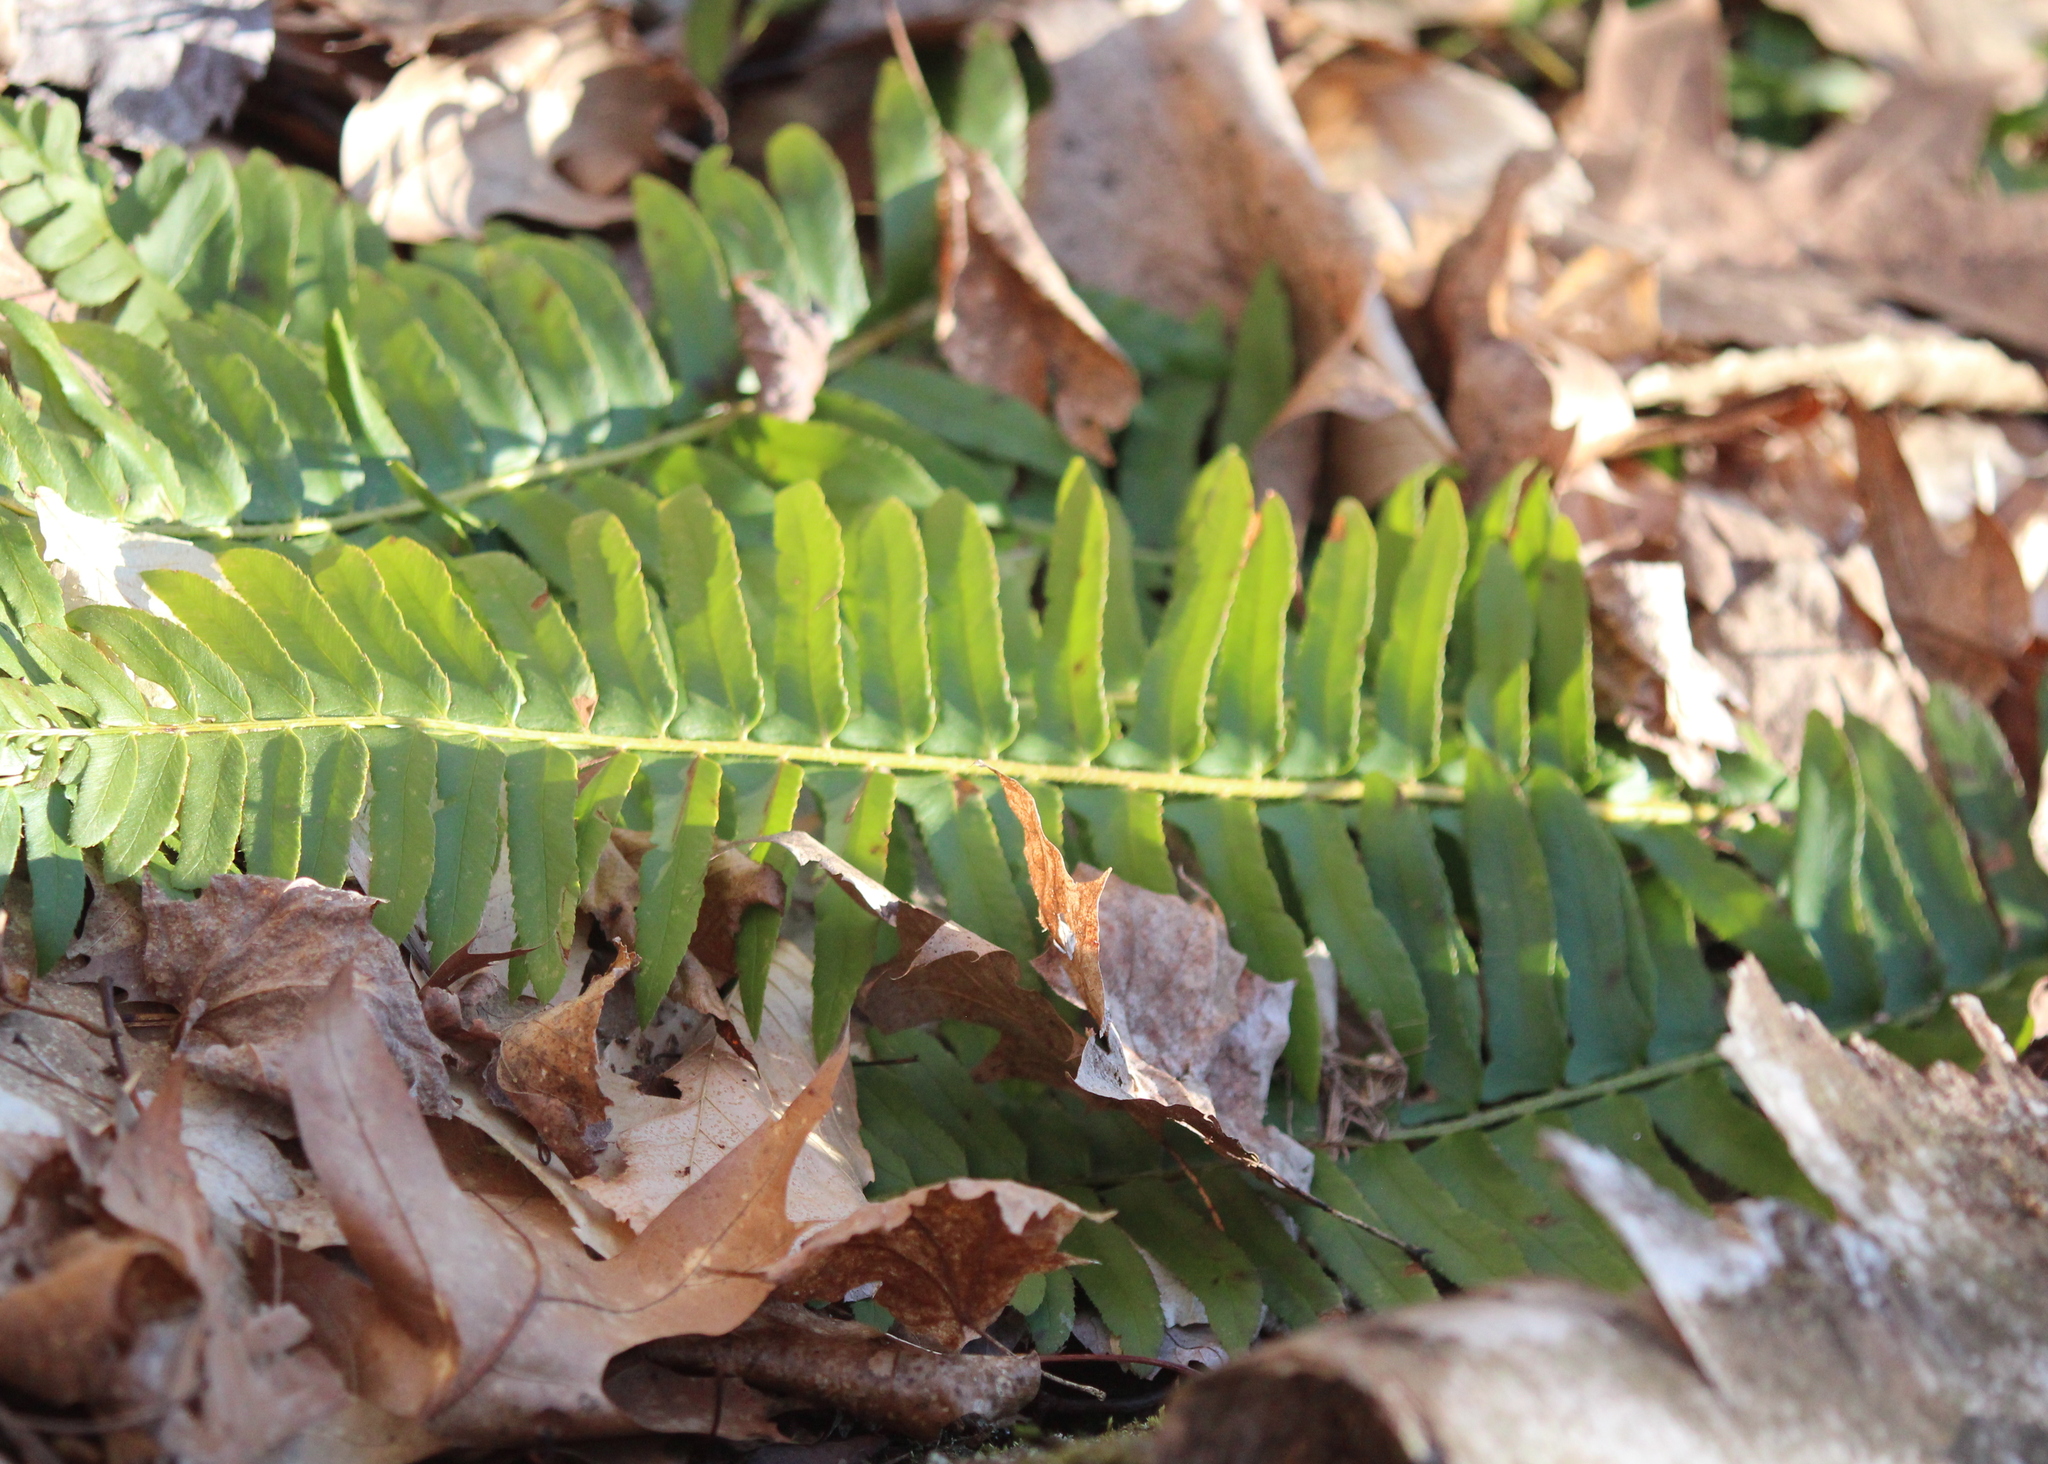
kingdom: Plantae
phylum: Tracheophyta
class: Polypodiopsida
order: Polypodiales
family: Dryopteridaceae
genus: Polystichum
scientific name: Polystichum acrostichoides
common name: Christmas fern
